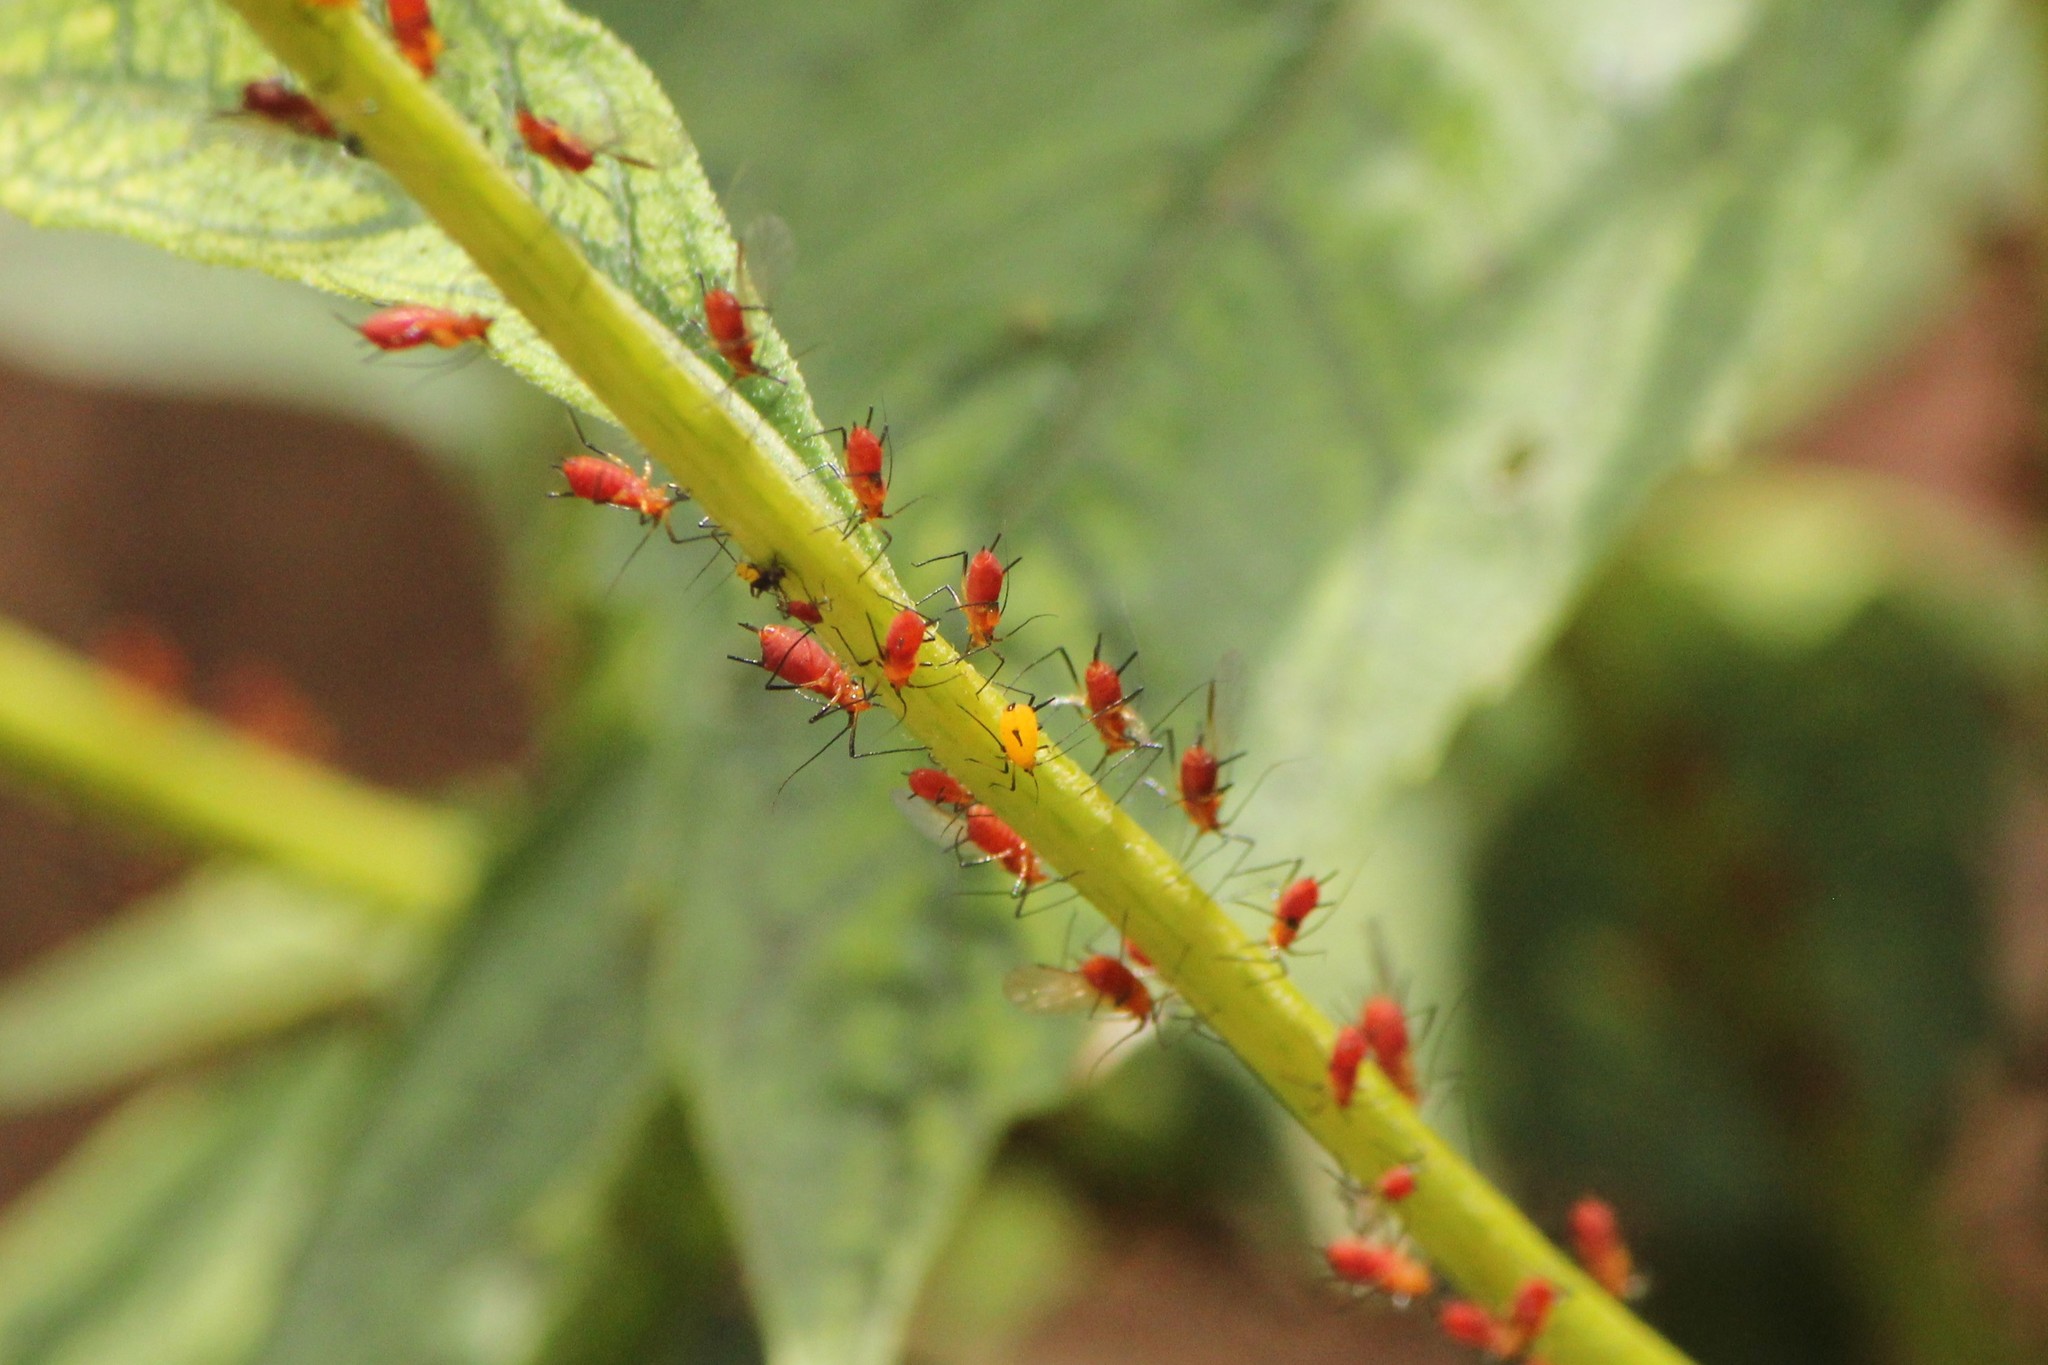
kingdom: Animalia
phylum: Arthropoda
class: Insecta
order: Hemiptera
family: Aphididae
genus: Uroleucon
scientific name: Uroleucon
